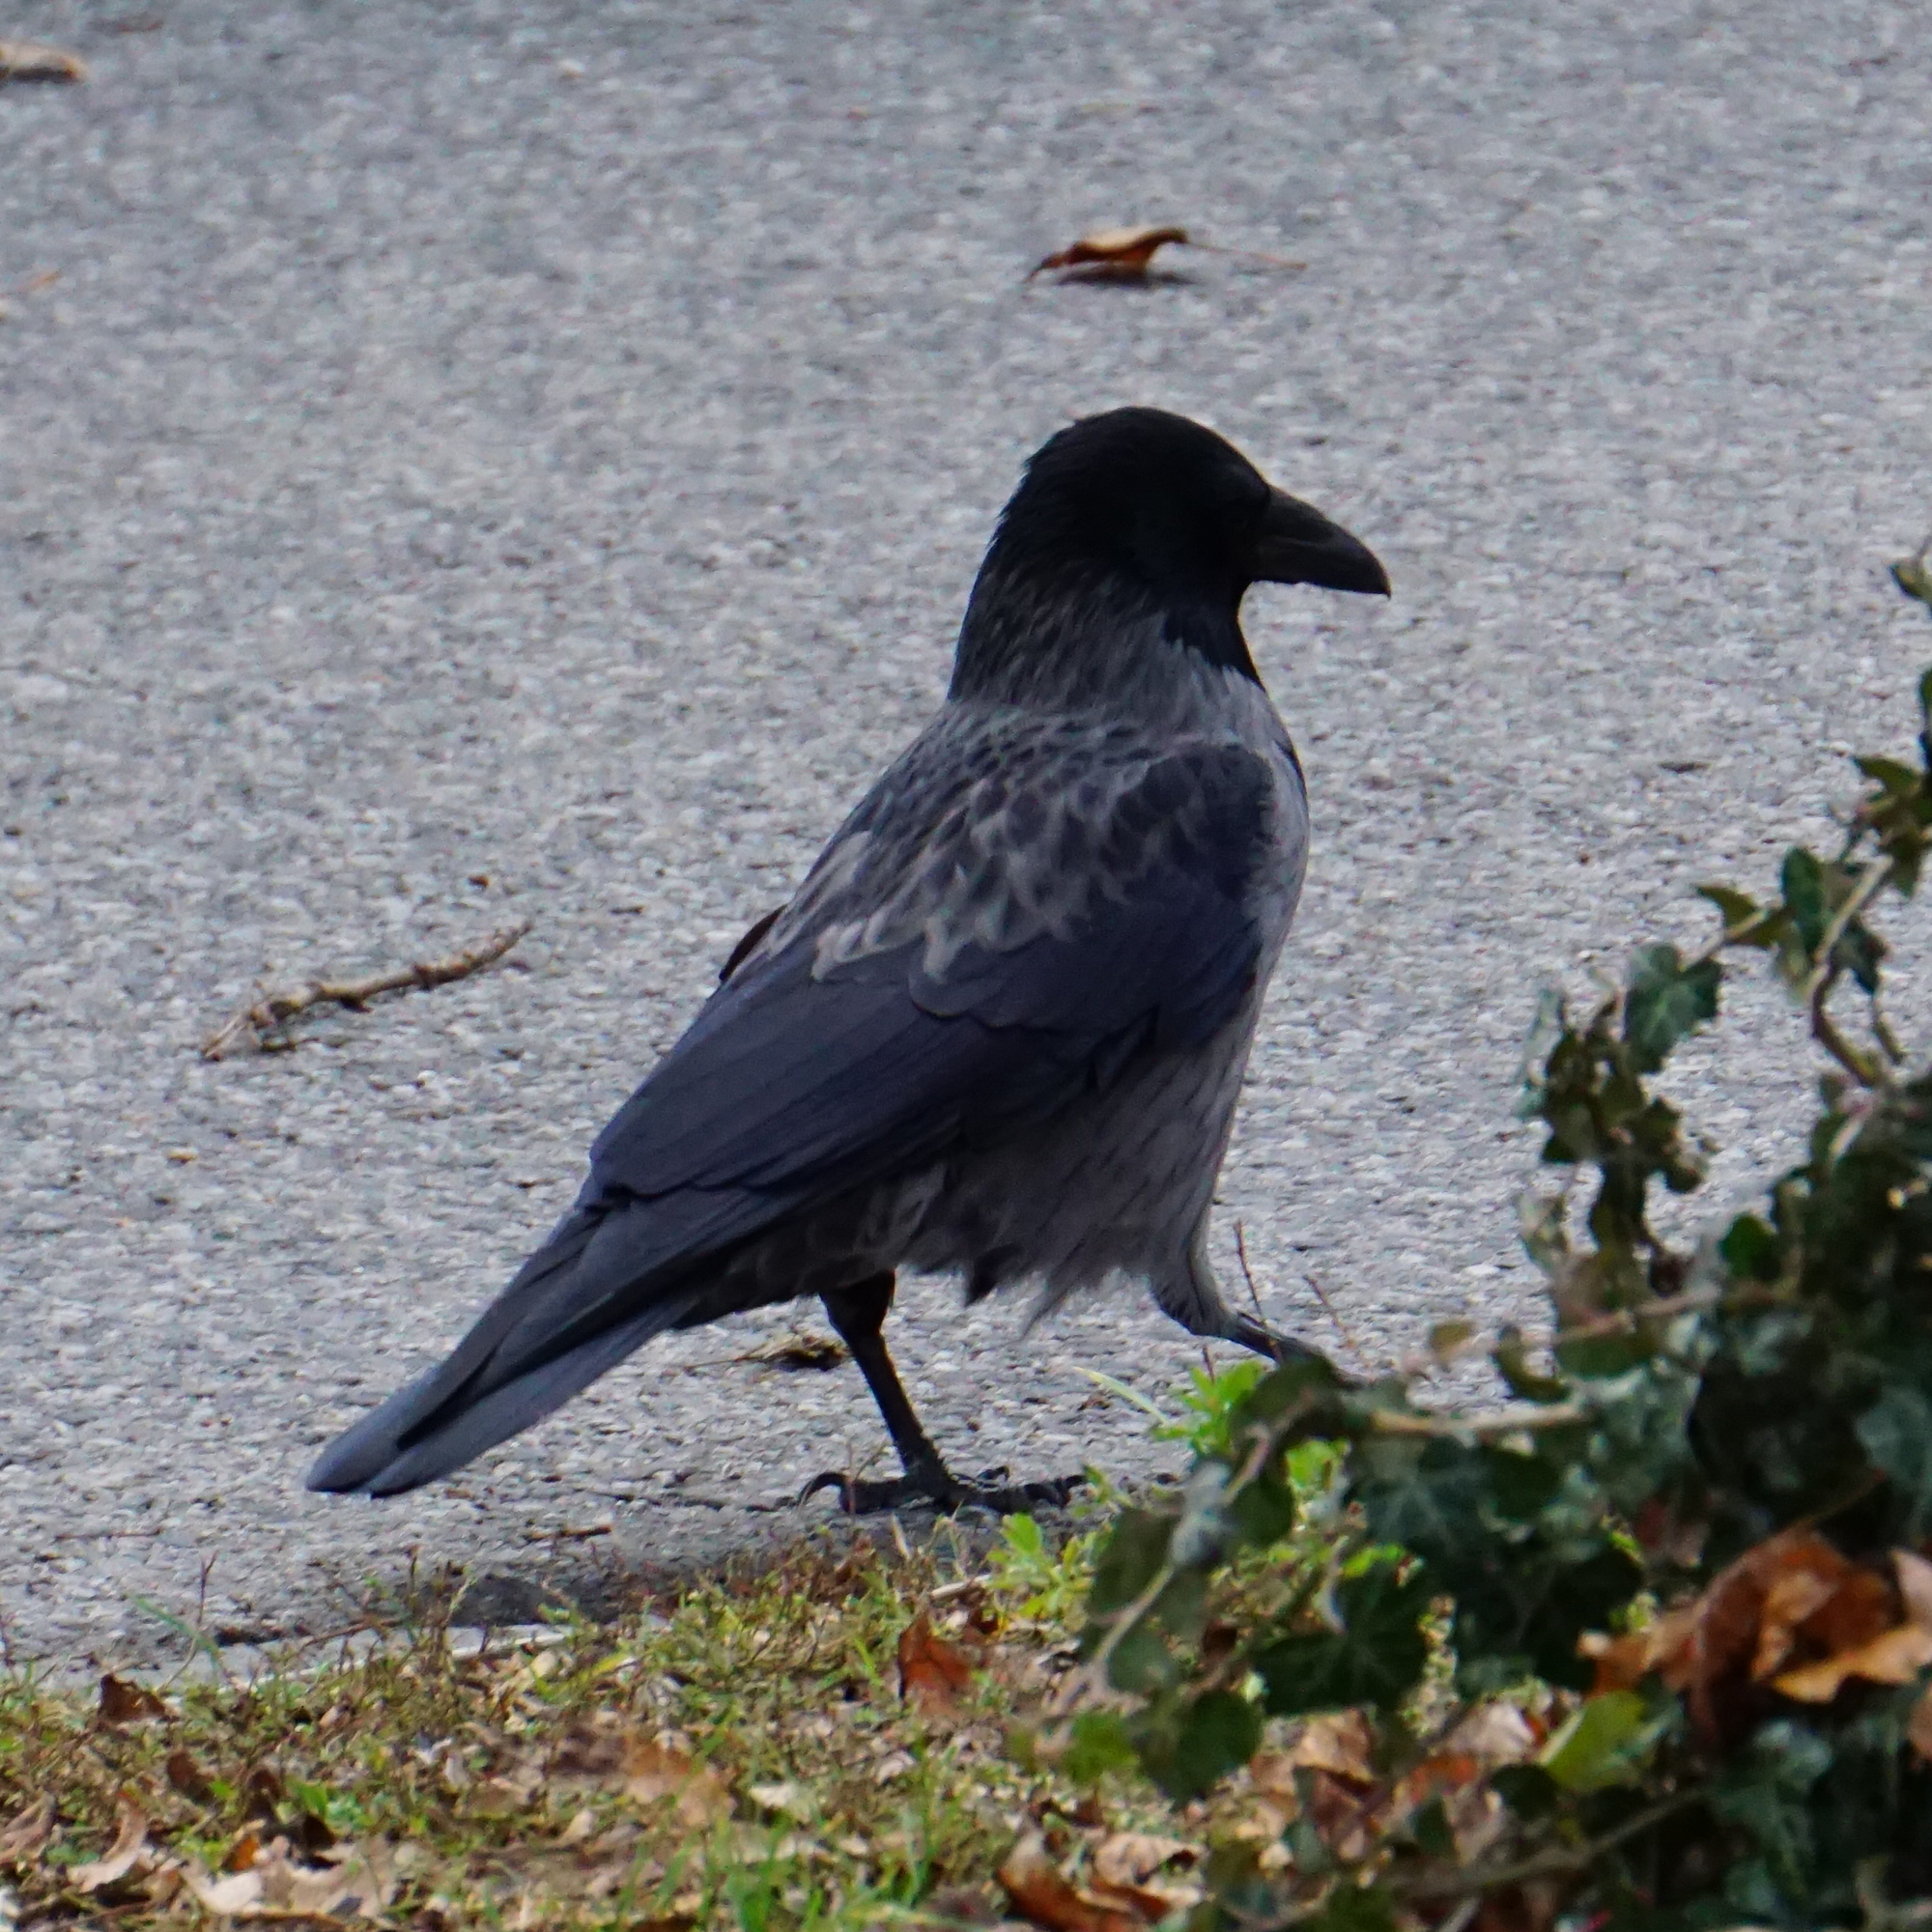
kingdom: Animalia
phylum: Chordata
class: Aves
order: Passeriformes
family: Corvidae
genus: Corvus
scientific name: Corvus
